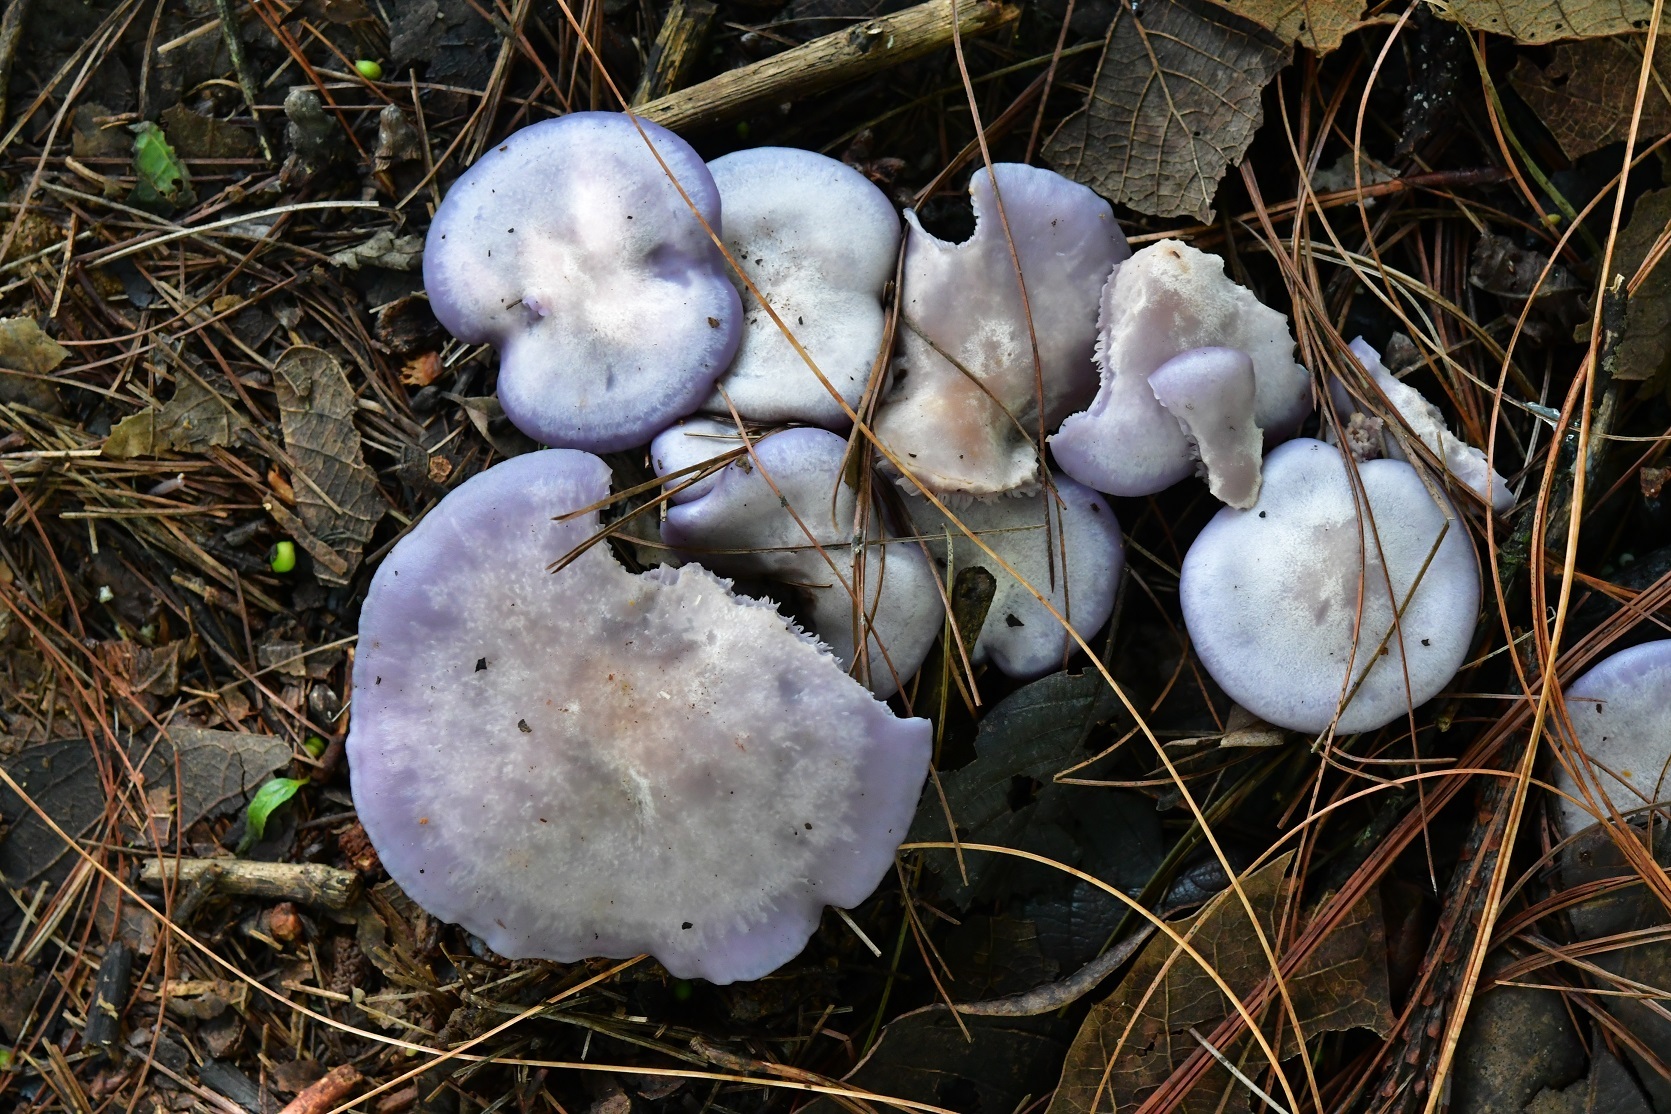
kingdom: Fungi
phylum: Basidiomycota
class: Agaricomycetes
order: Agaricales
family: Tricholomataceae
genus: Collybia
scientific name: Collybia
